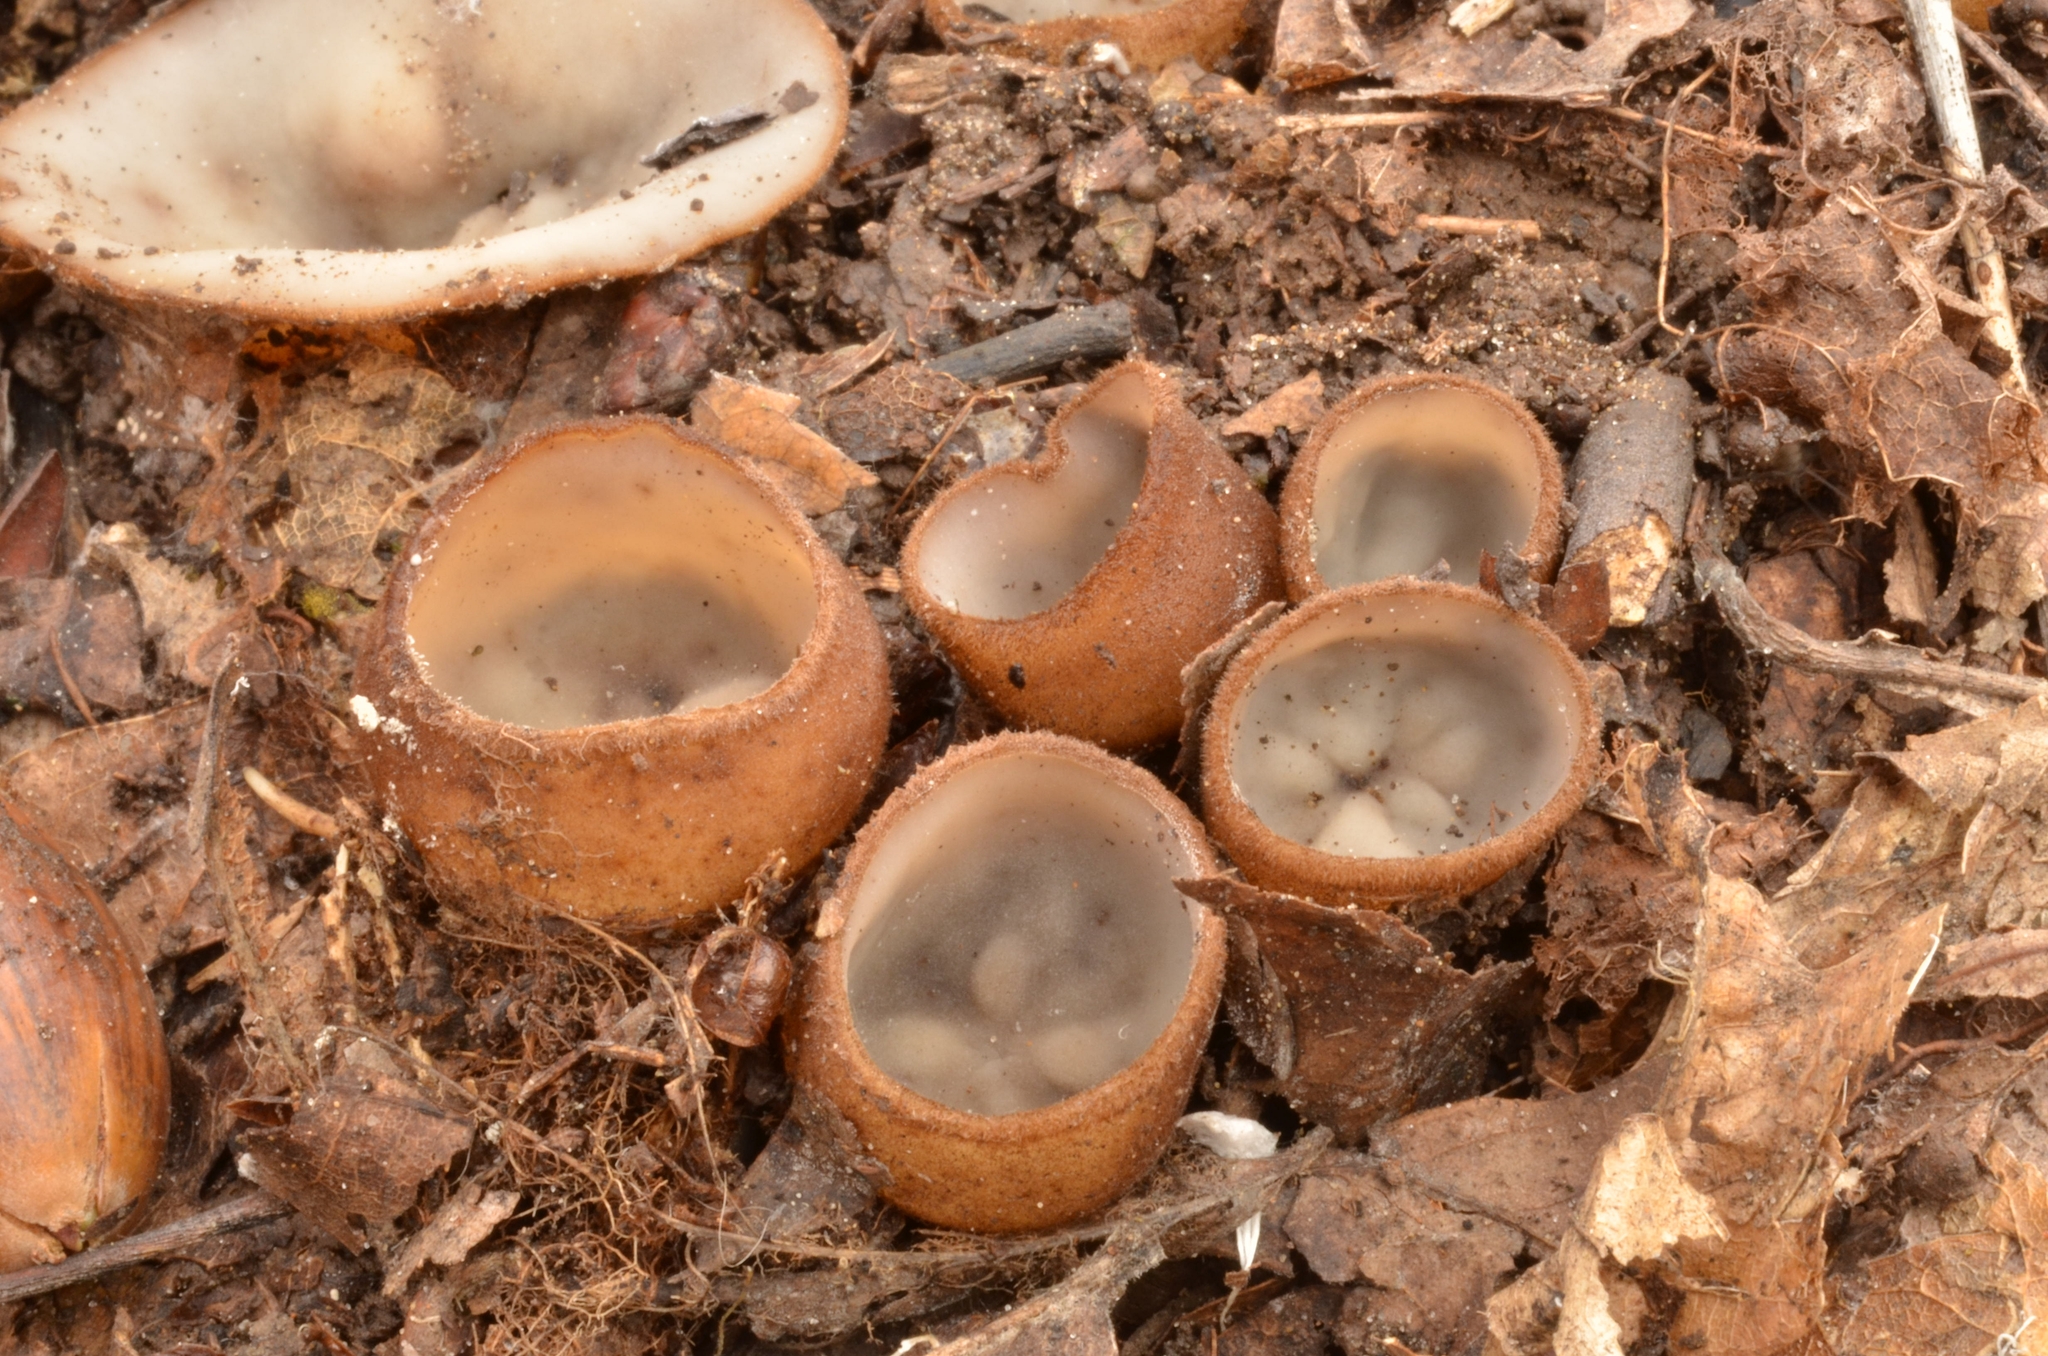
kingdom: Fungi
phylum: Ascomycota
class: Pezizomycetes
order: Pezizales
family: Pyronemataceae
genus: Humaria
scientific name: Humaria hemisphaerica
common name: Glazed cup
